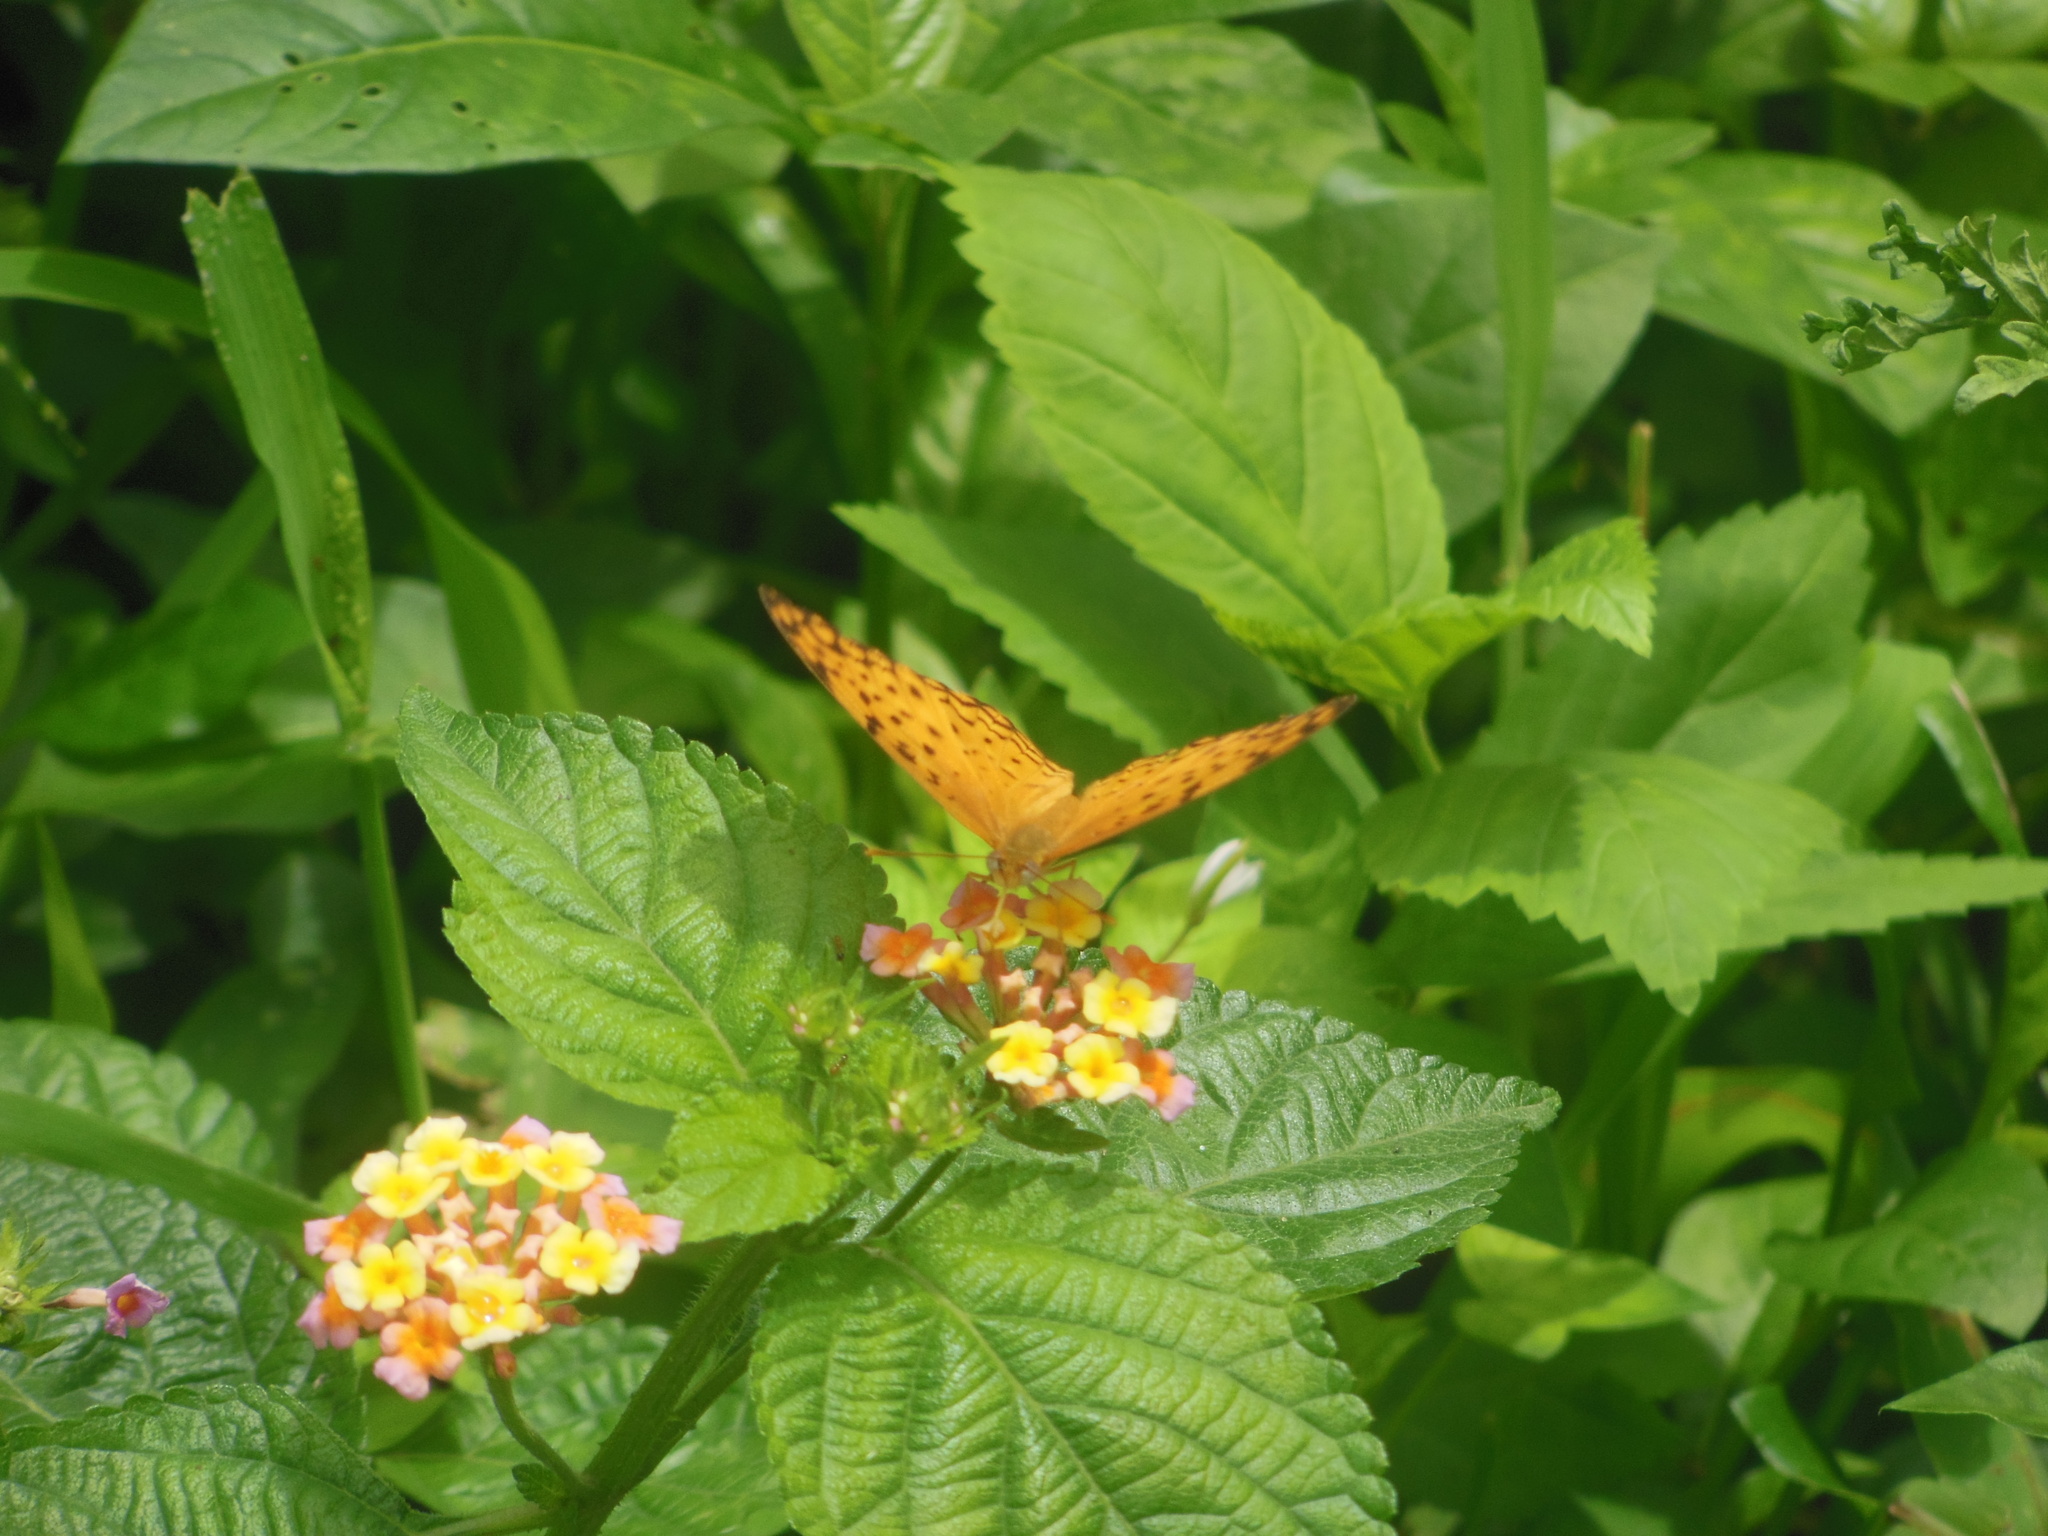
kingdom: Animalia
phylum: Arthropoda
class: Insecta
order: Lepidoptera
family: Nymphalidae
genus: Phalanta
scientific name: Phalanta phalantha
